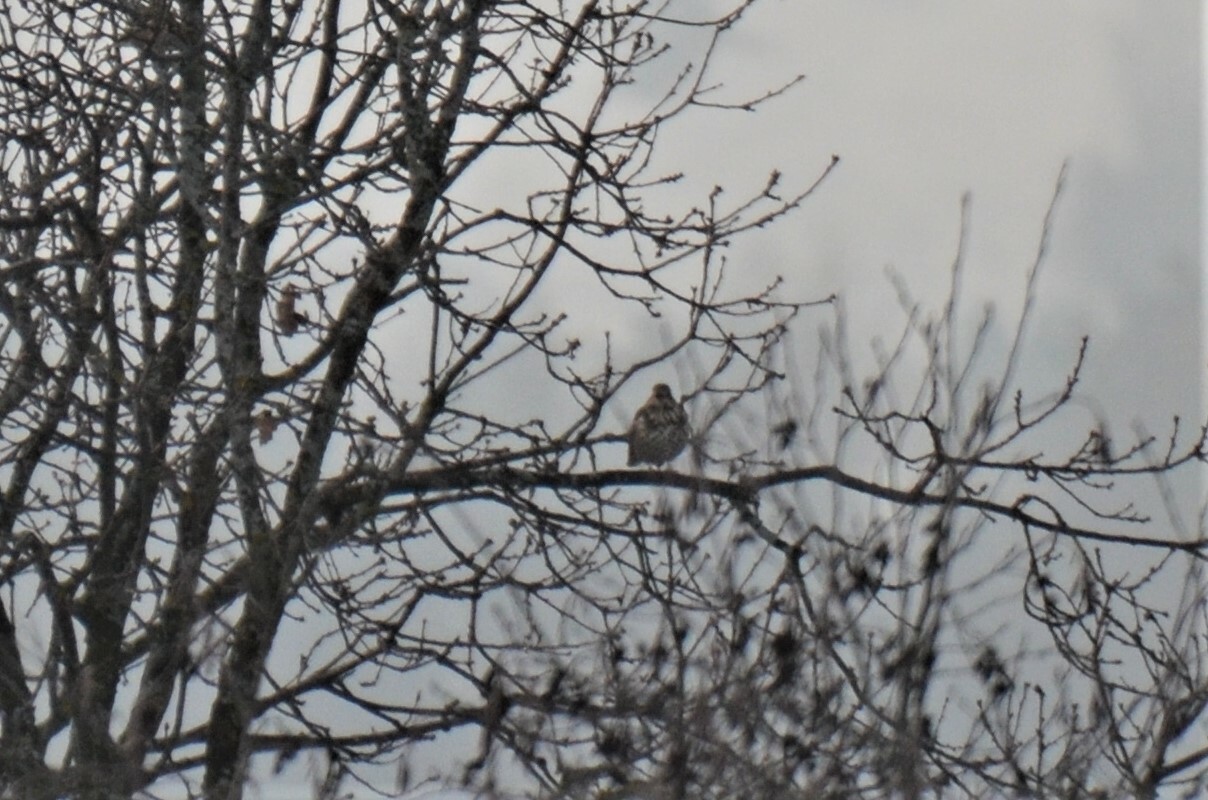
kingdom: Animalia
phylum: Chordata
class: Aves
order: Passeriformes
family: Turdidae
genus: Turdus
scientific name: Turdus viscivorus
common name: Mistle thrush
